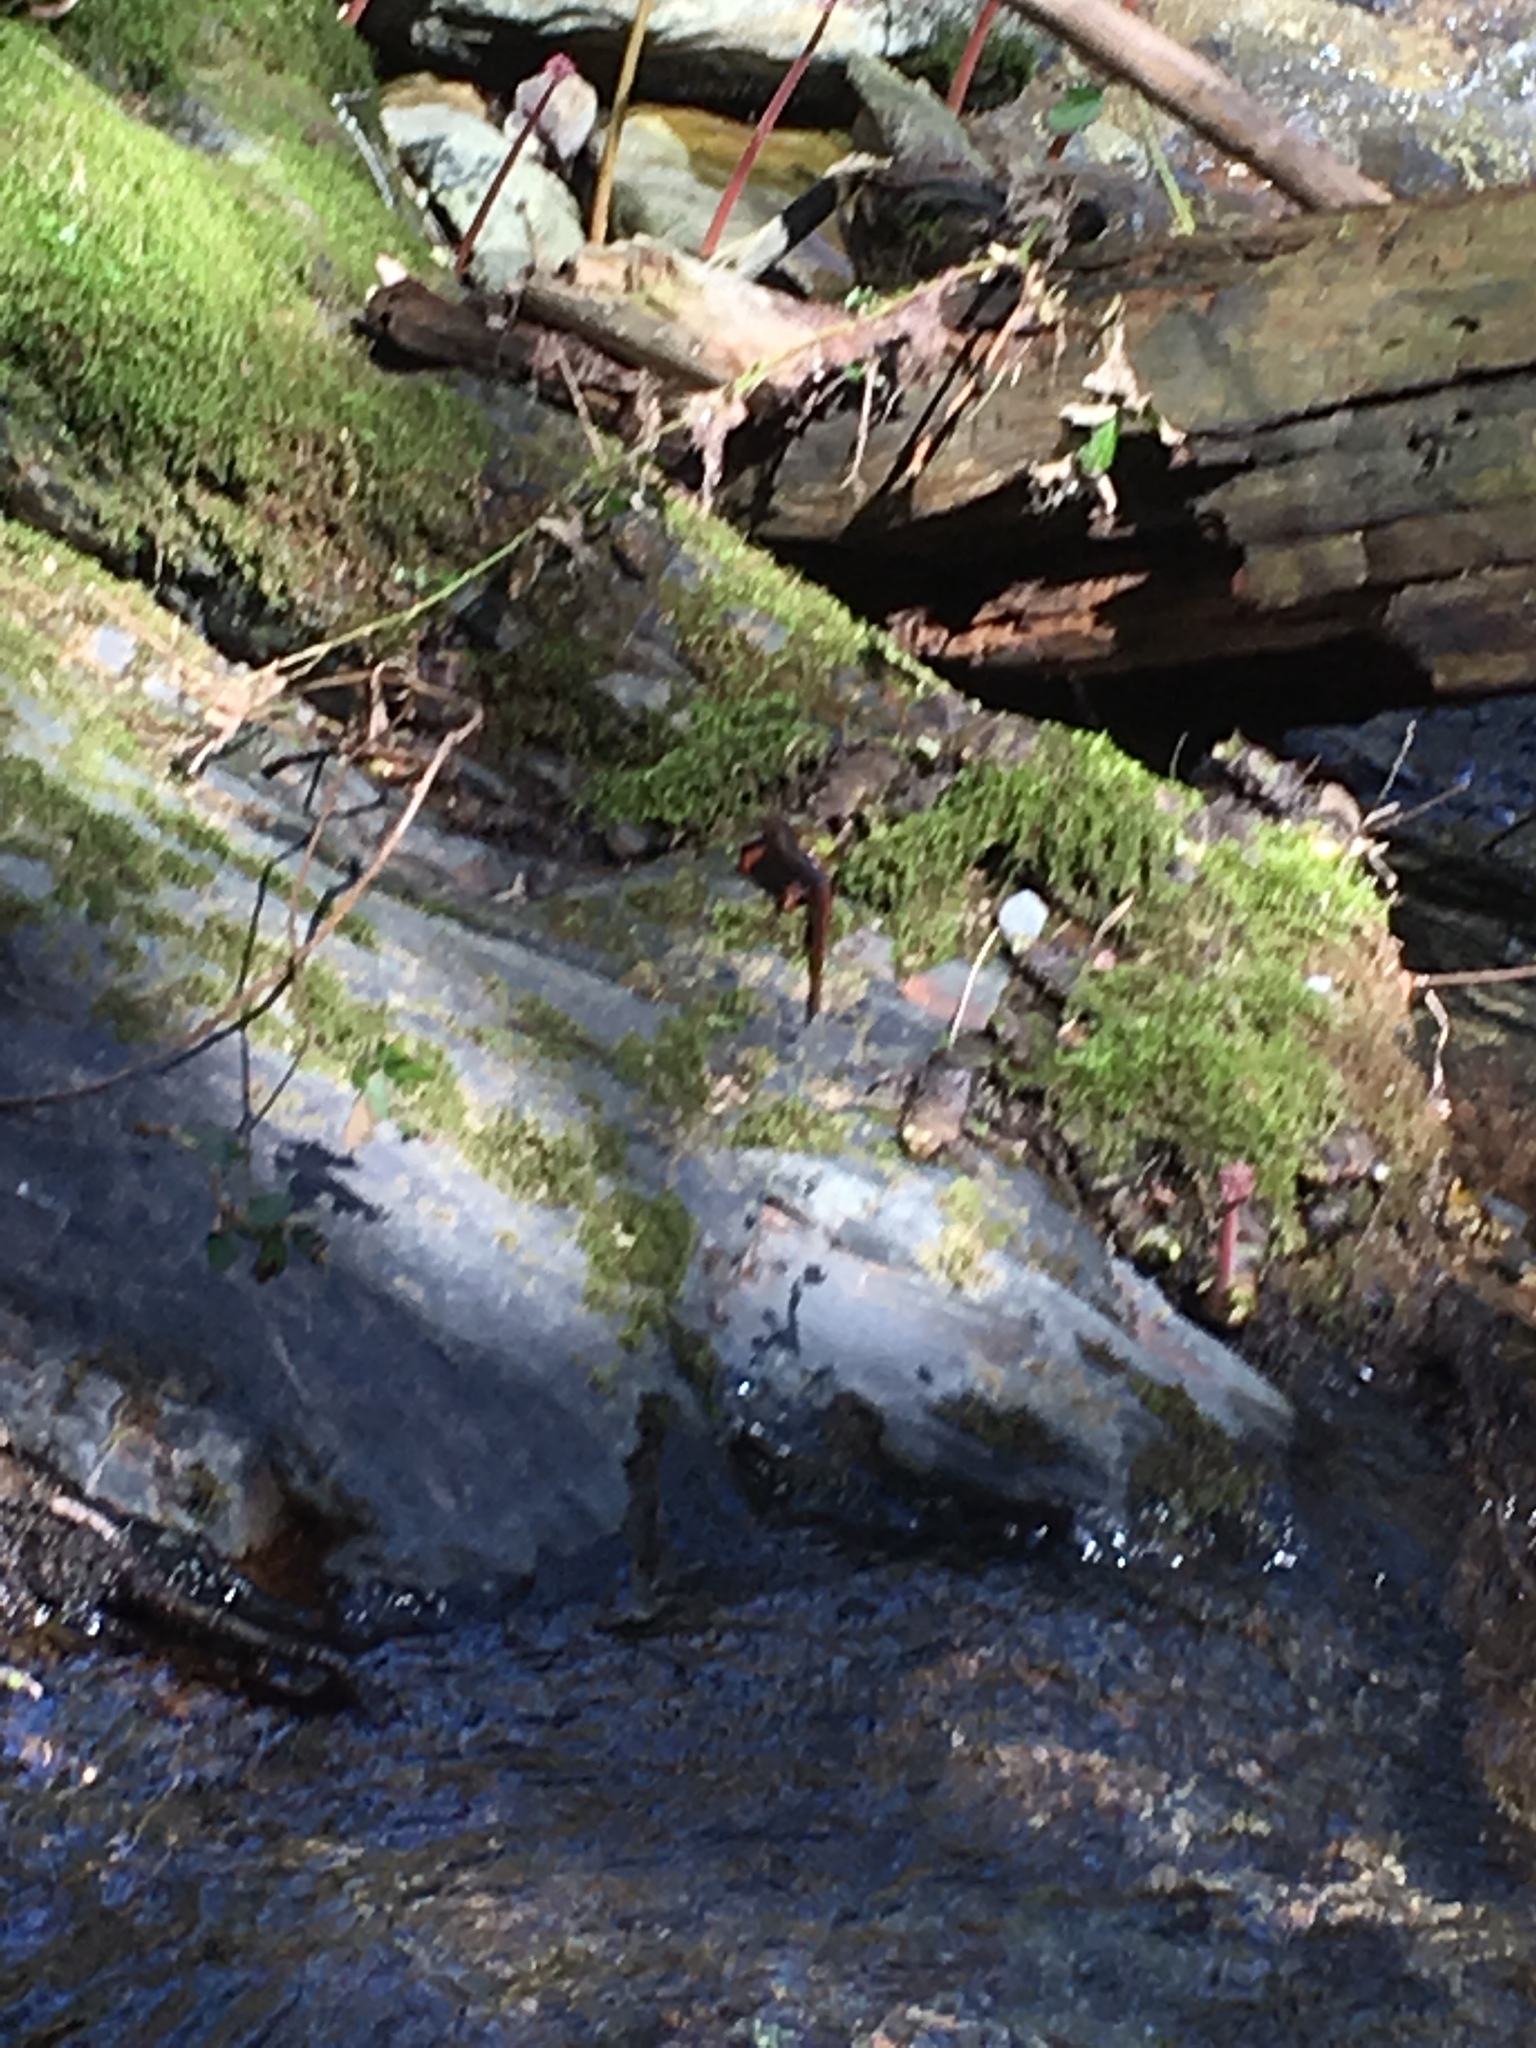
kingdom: Animalia
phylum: Chordata
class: Amphibia
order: Caudata
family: Salamandridae
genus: Taricha
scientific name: Taricha sierrae
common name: Sierra newt
